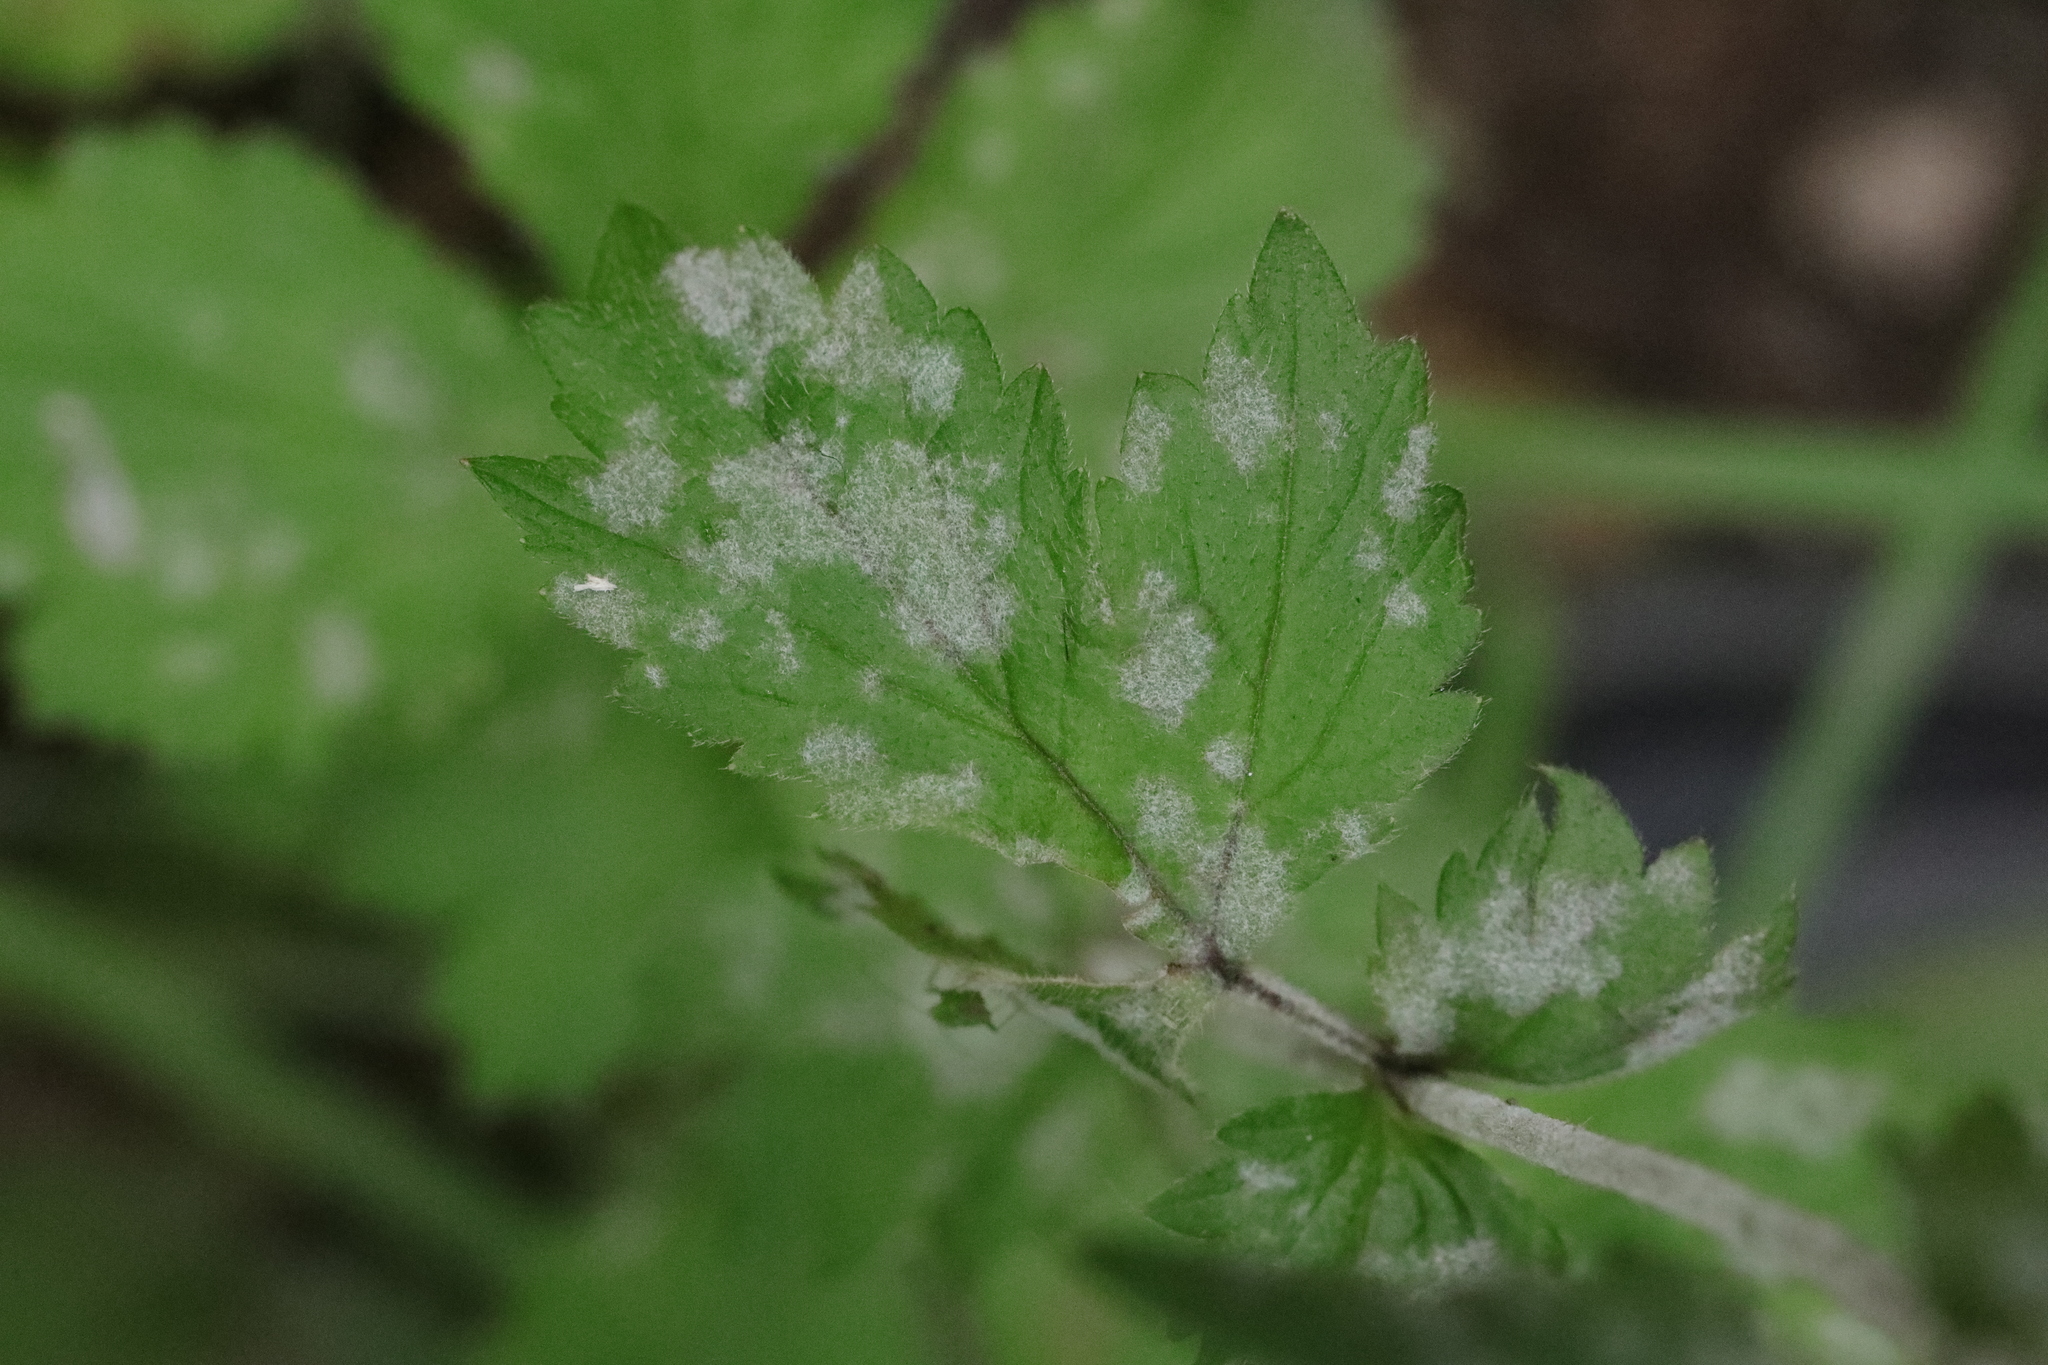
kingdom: Fungi
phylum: Ascomycota
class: Leotiomycetes
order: Helotiales
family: Erysiphaceae
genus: Podosphaera
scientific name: Podosphaera aphanis
